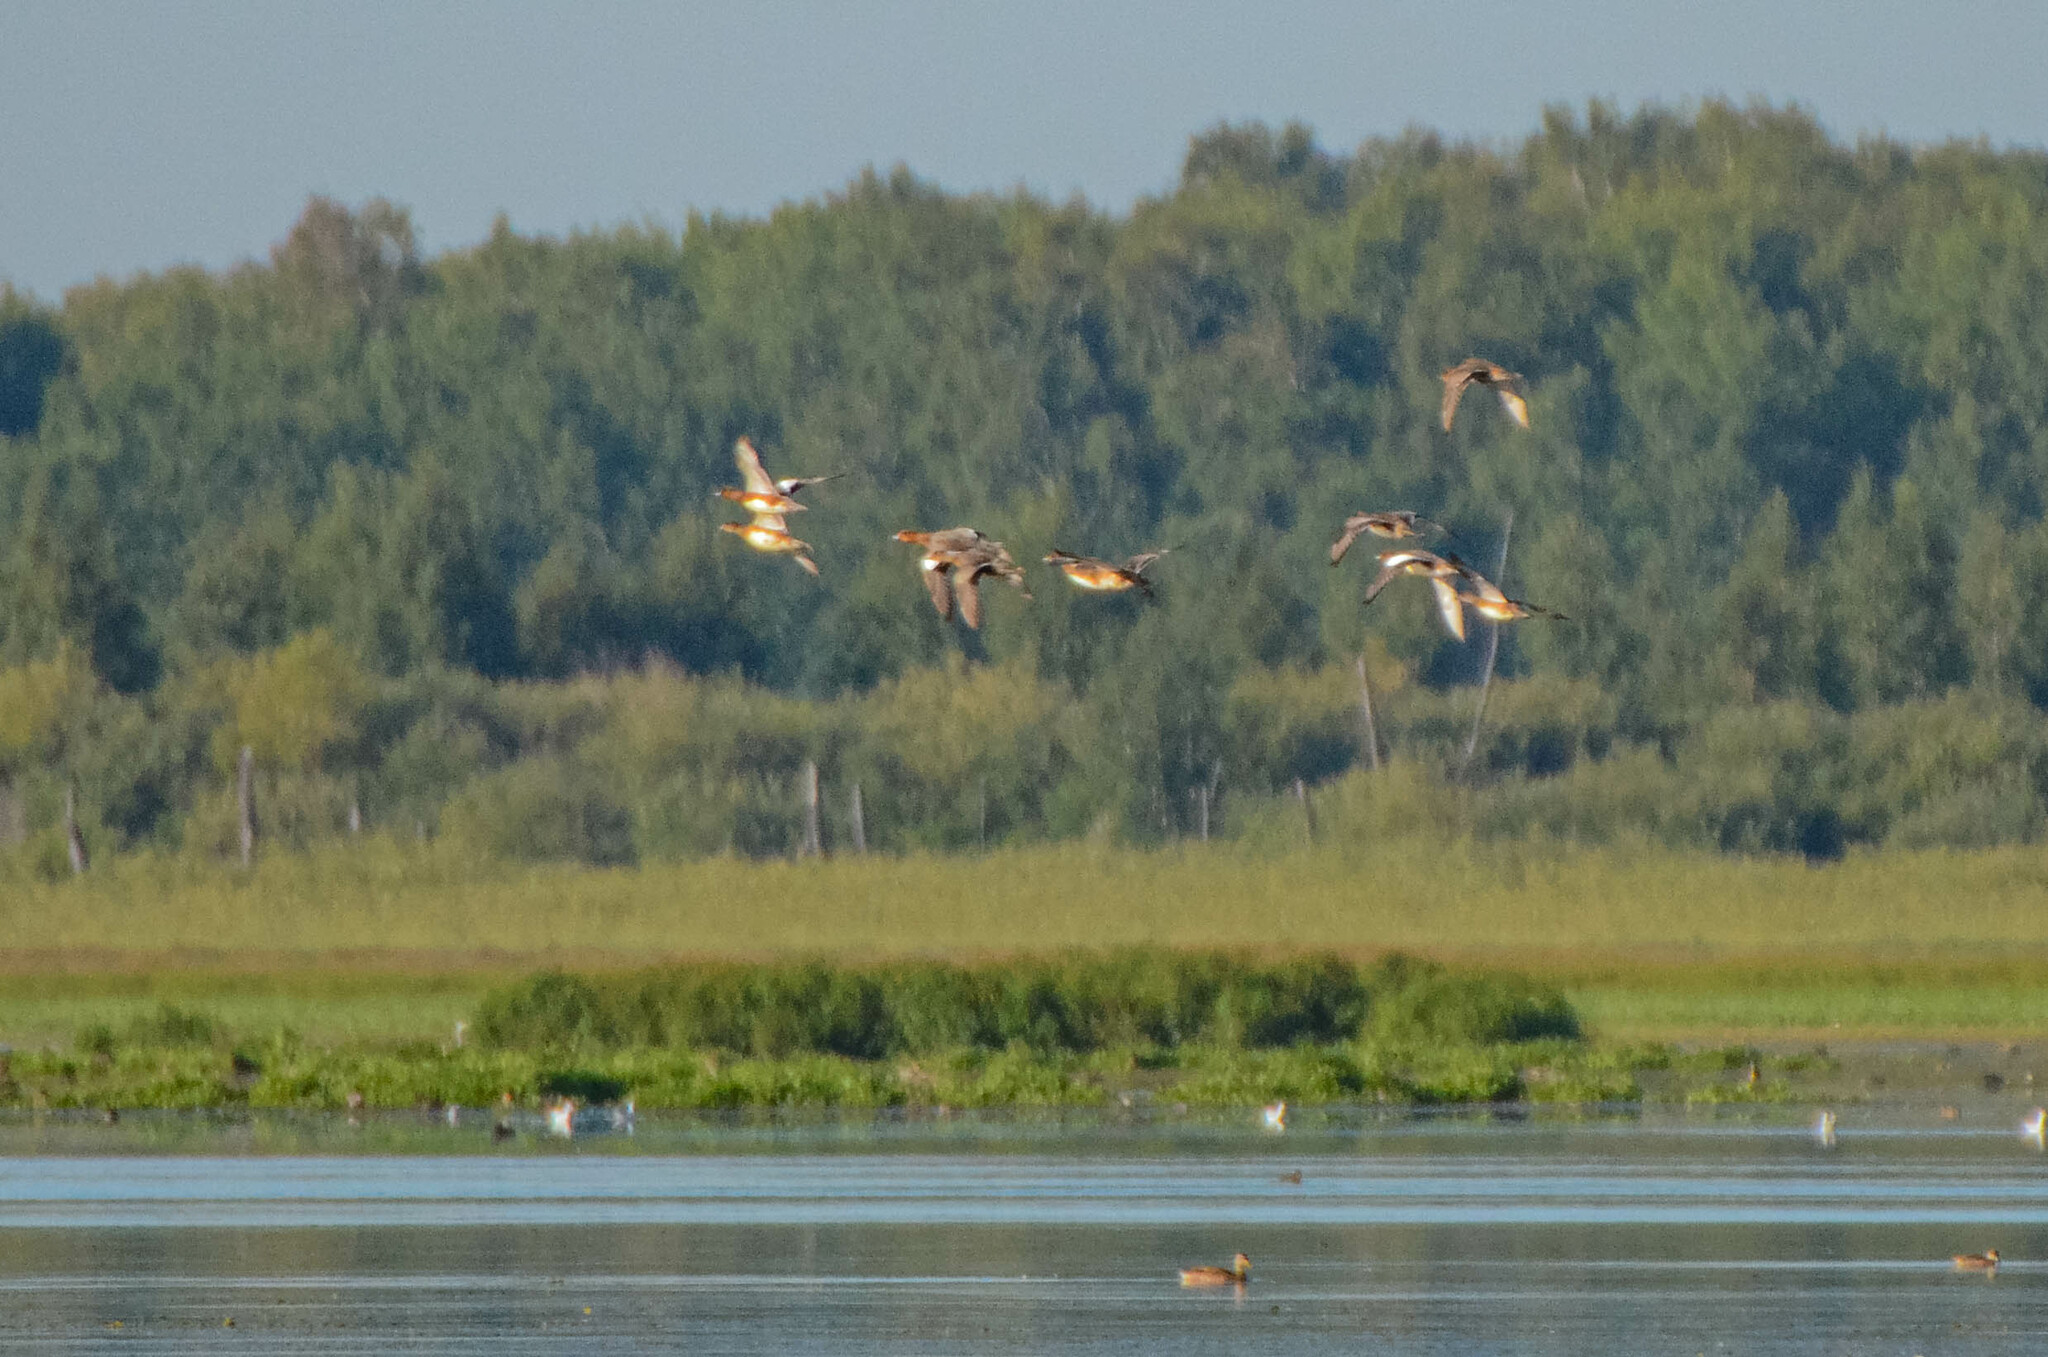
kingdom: Animalia
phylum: Chordata
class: Aves
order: Anseriformes
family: Anatidae
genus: Mareca
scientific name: Mareca penelope
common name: Eurasian wigeon
